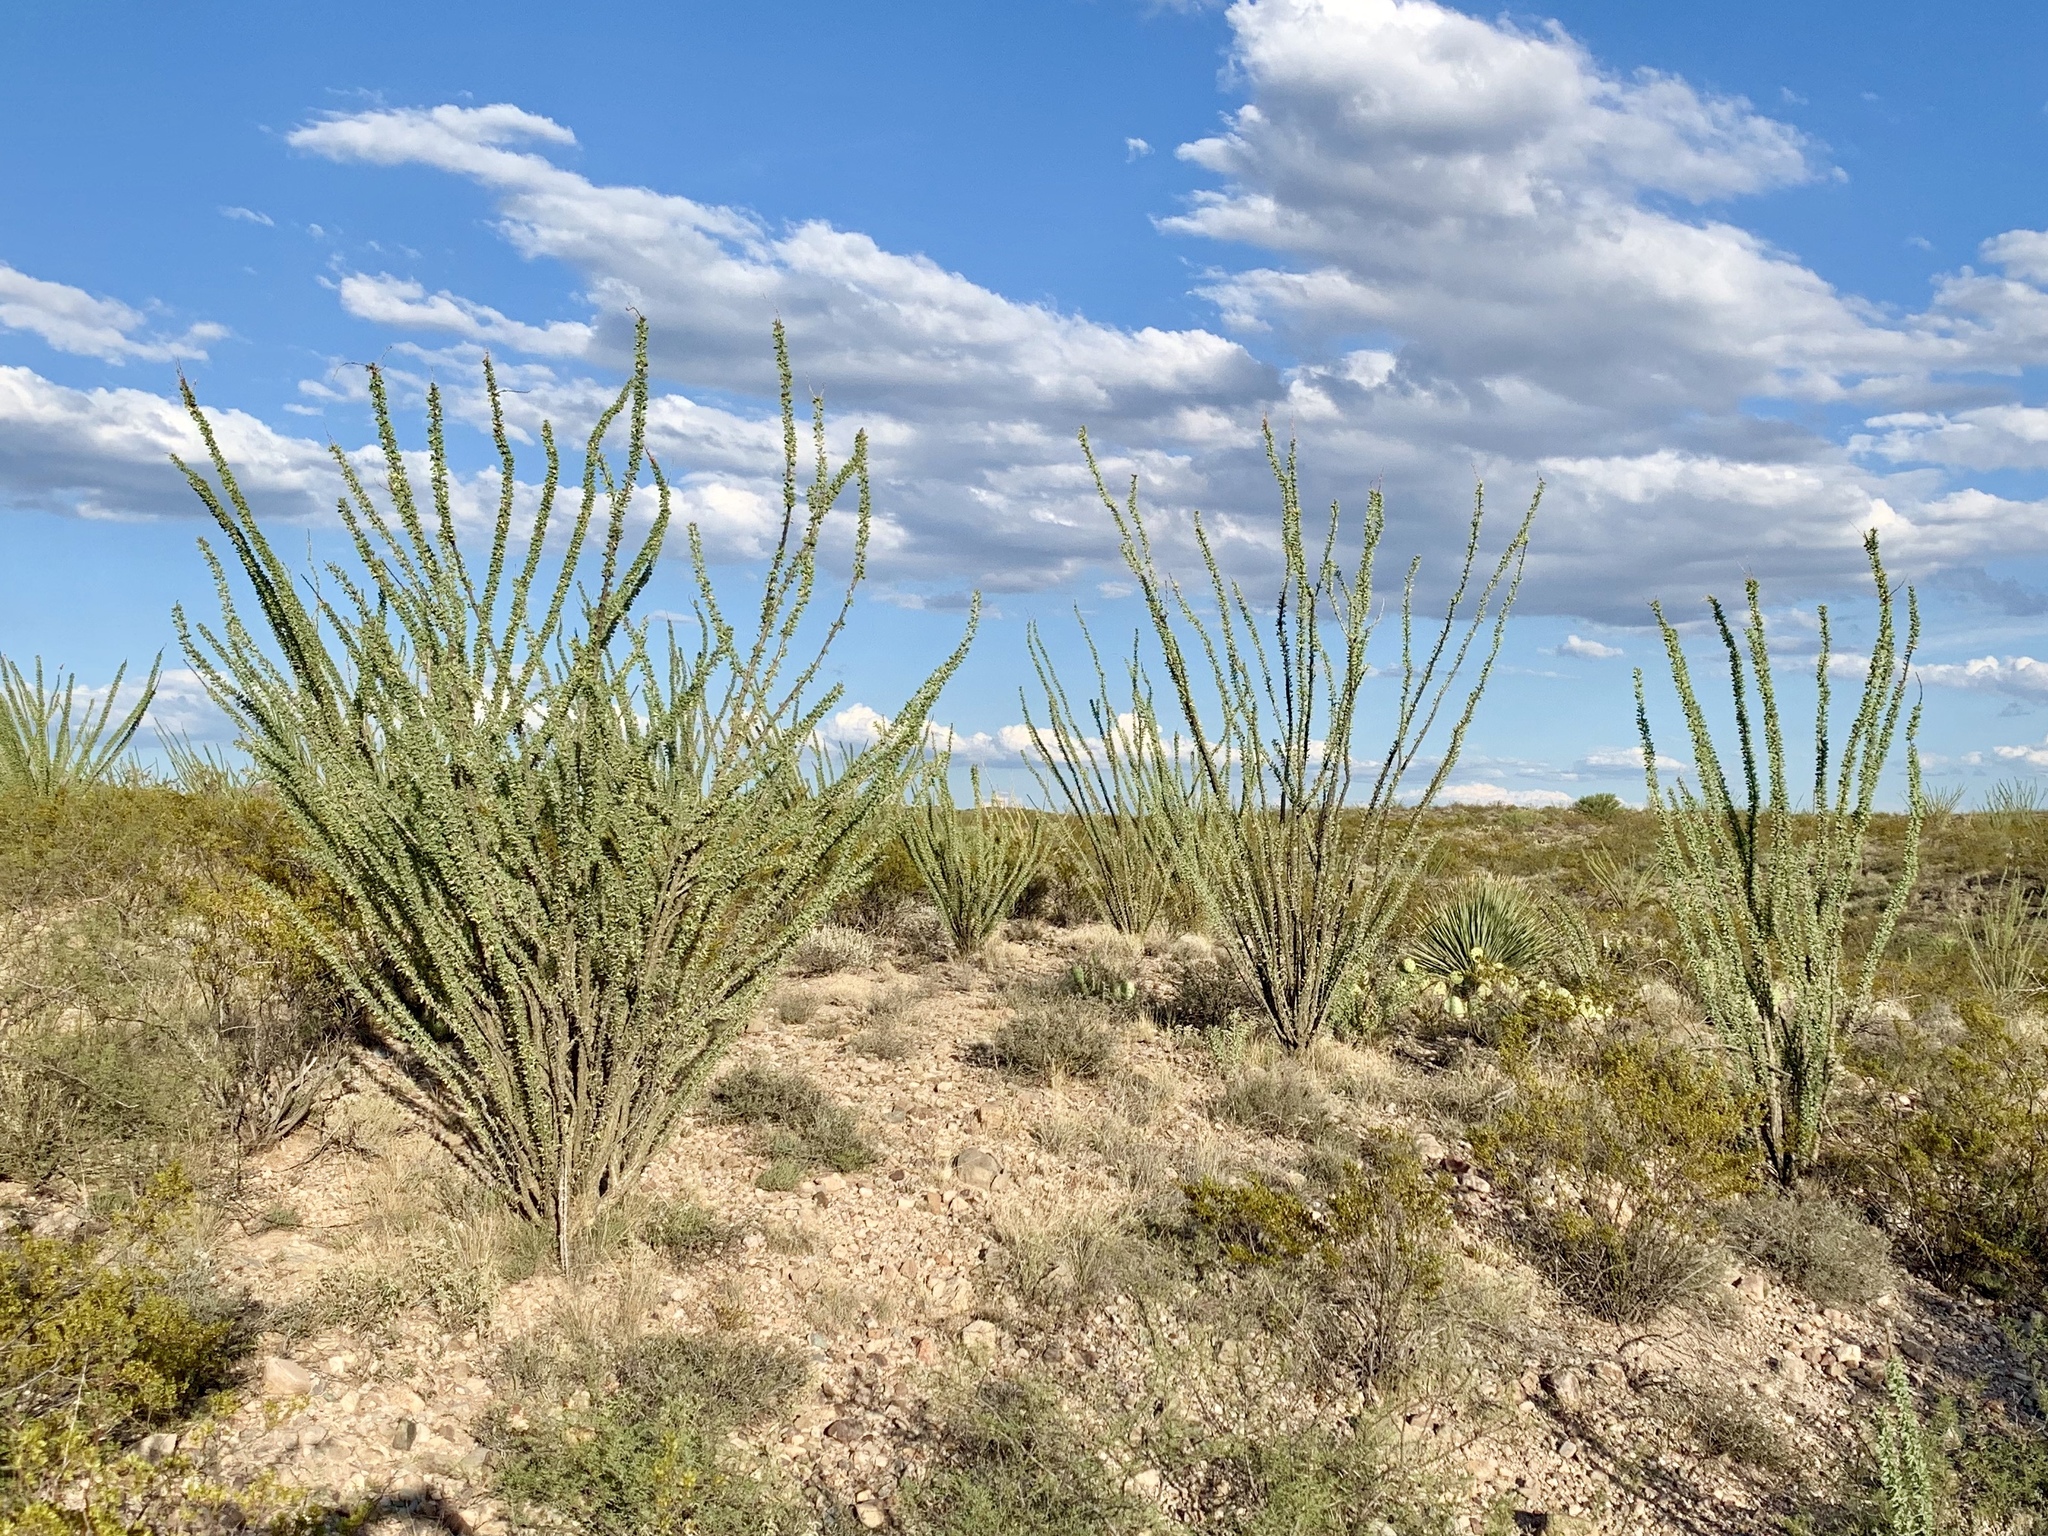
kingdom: Plantae
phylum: Tracheophyta
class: Magnoliopsida
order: Ericales
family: Fouquieriaceae
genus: Fouquieria
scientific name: Fouquieria splendens
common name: Vine-cactus
